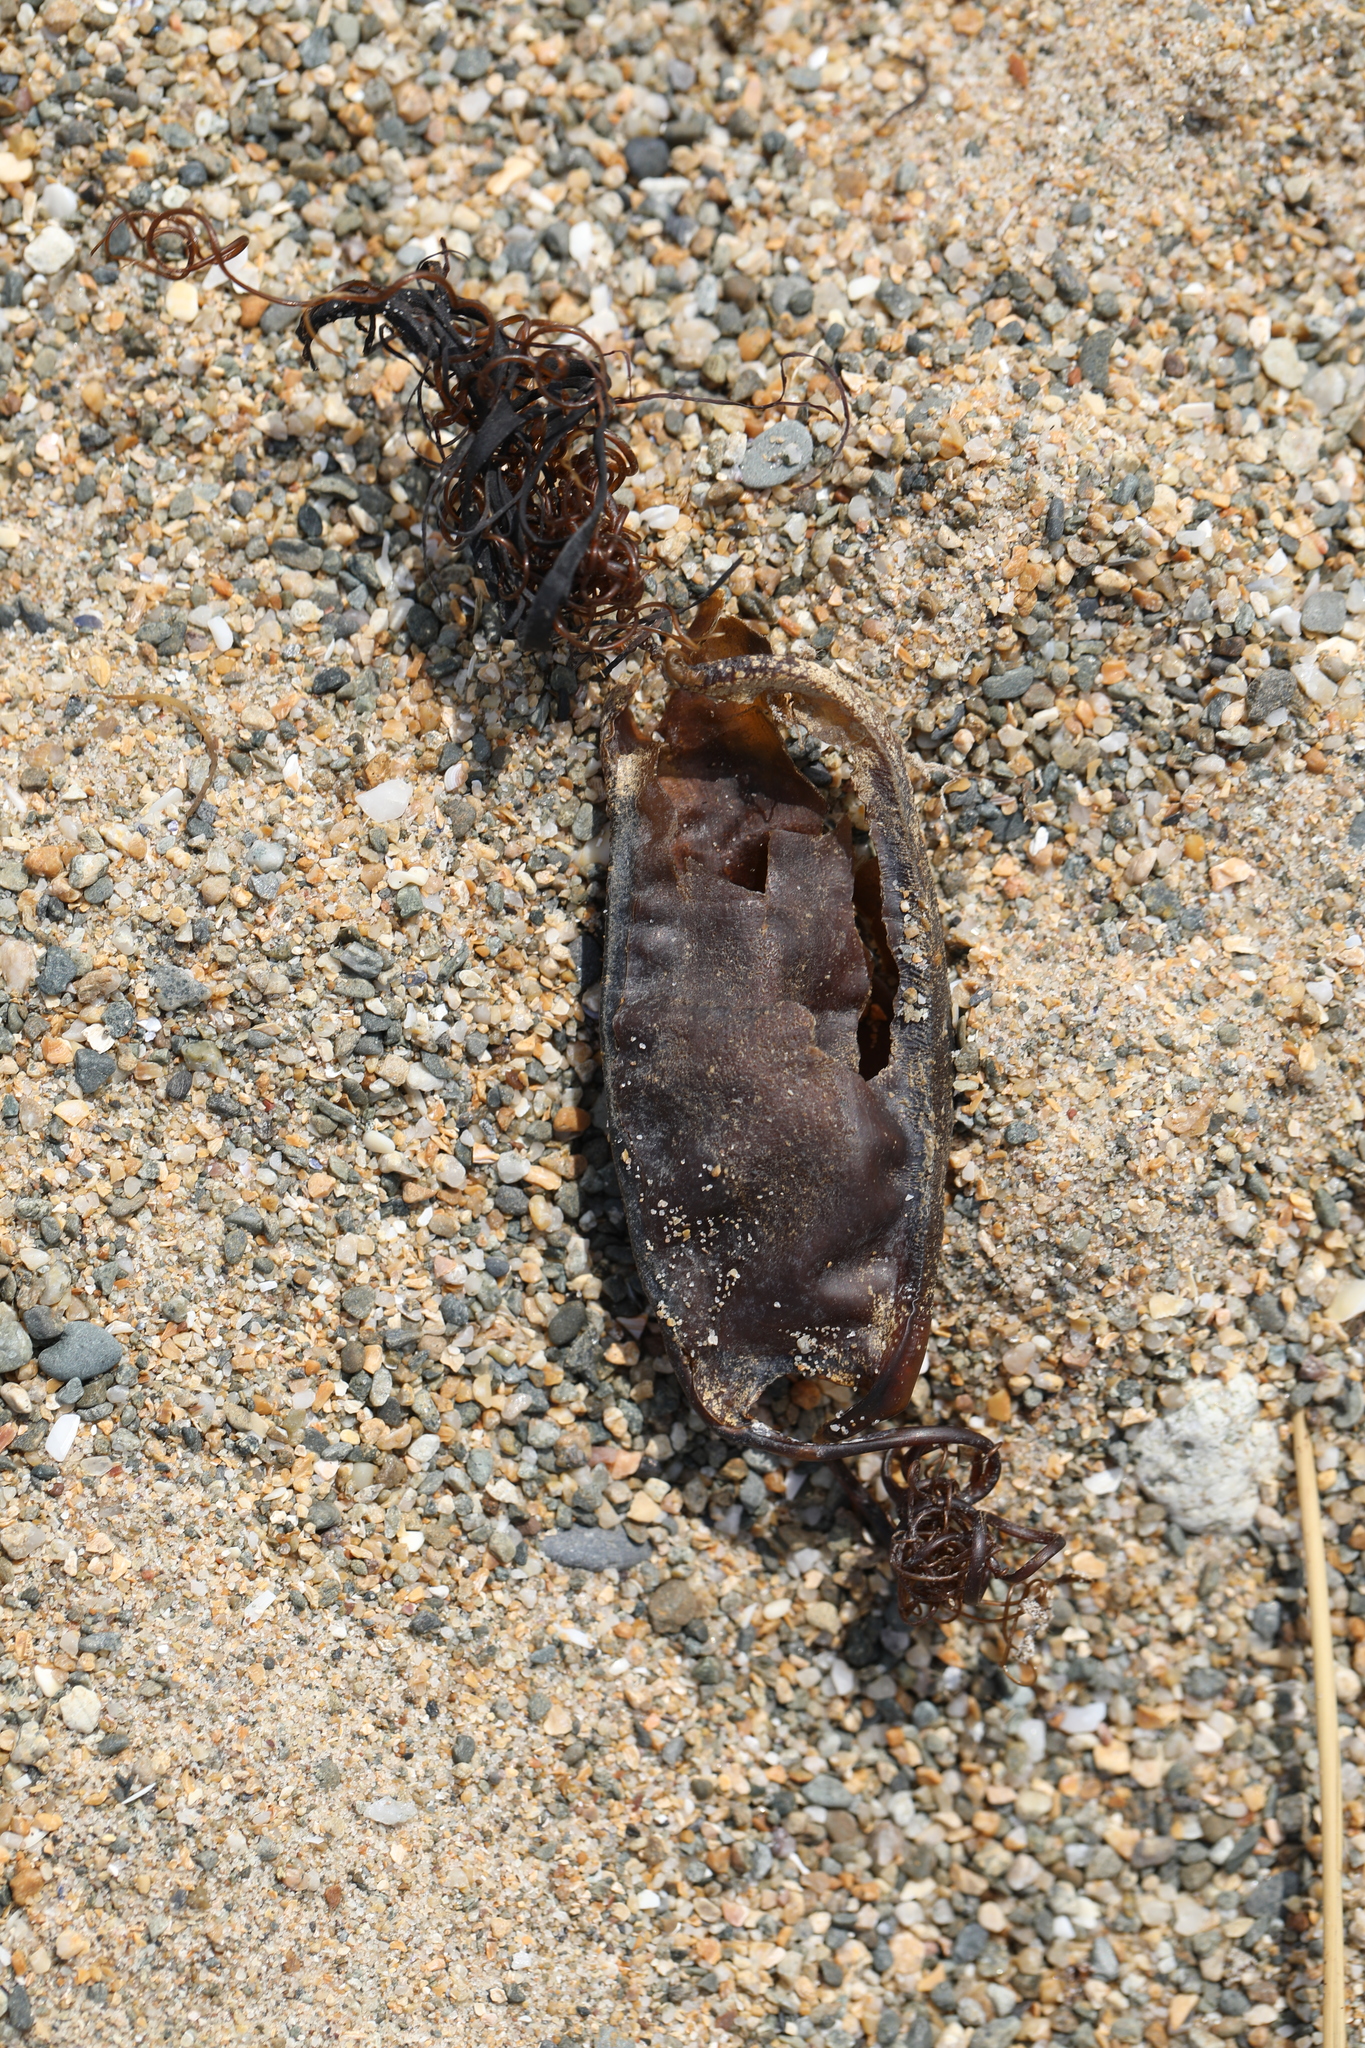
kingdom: Animalia
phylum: Chordata
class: Elasmobranchii
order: Carcharhiniformes
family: Scyliorhinidae
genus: Scyliorhinus
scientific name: Scyliorhinus stellaris
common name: Nursehound
